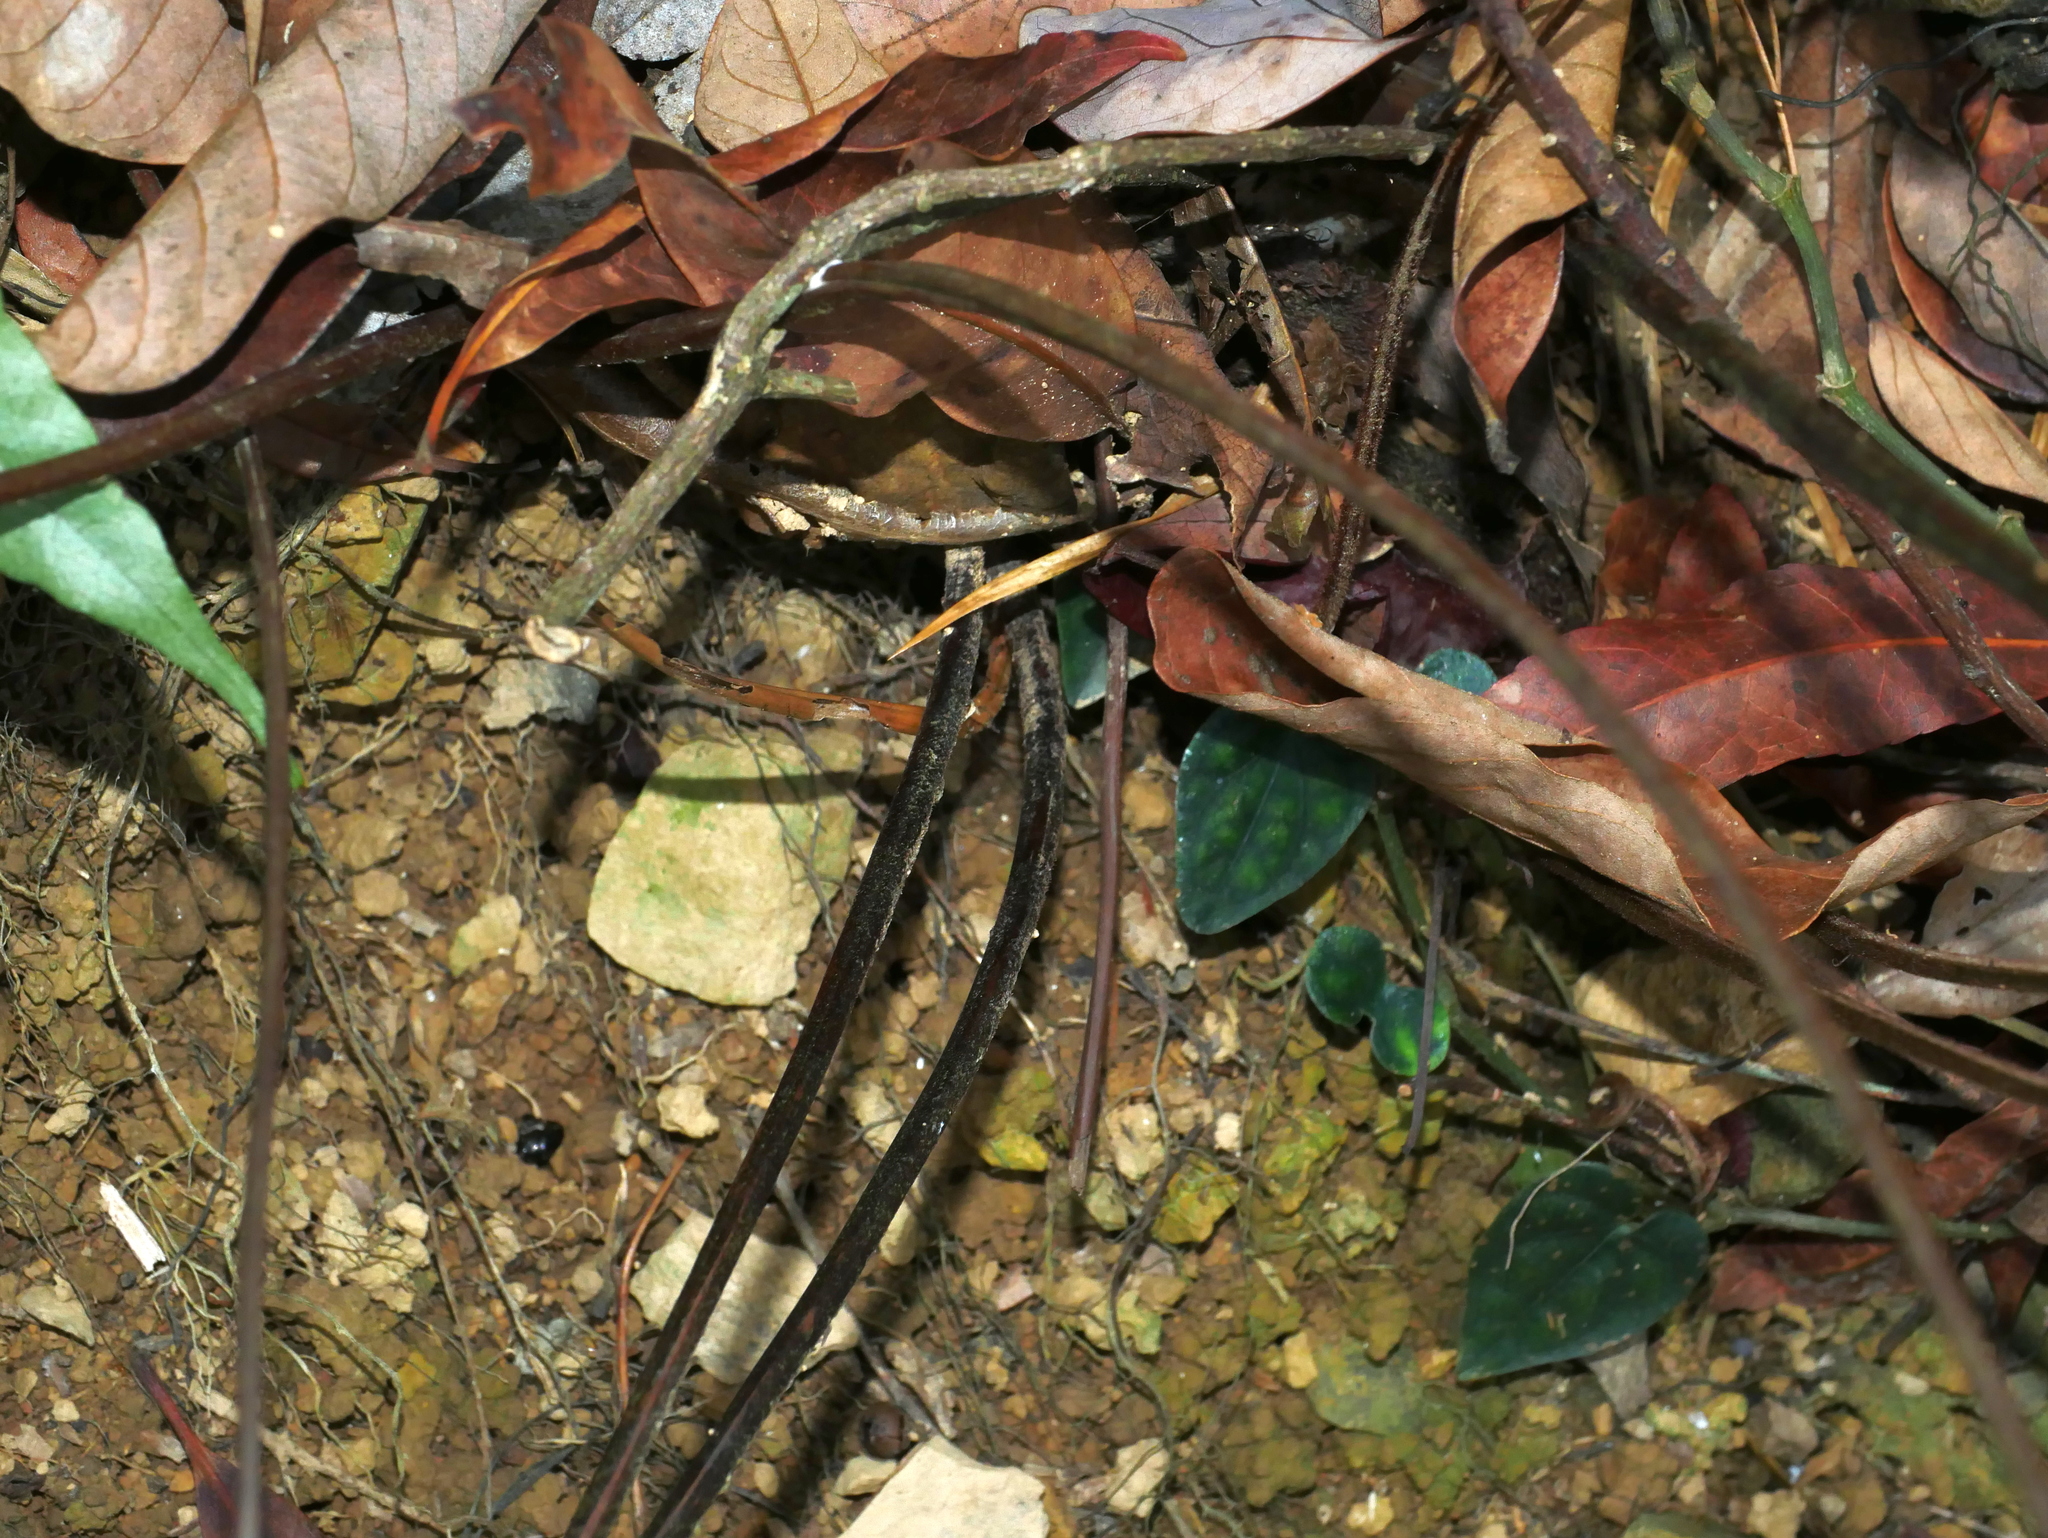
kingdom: Plantae
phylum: Tracheophyta
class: Polypodiopsida
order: Polypodiales
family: Tectariaceae
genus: Tectaria
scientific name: Tectaria simonsii
